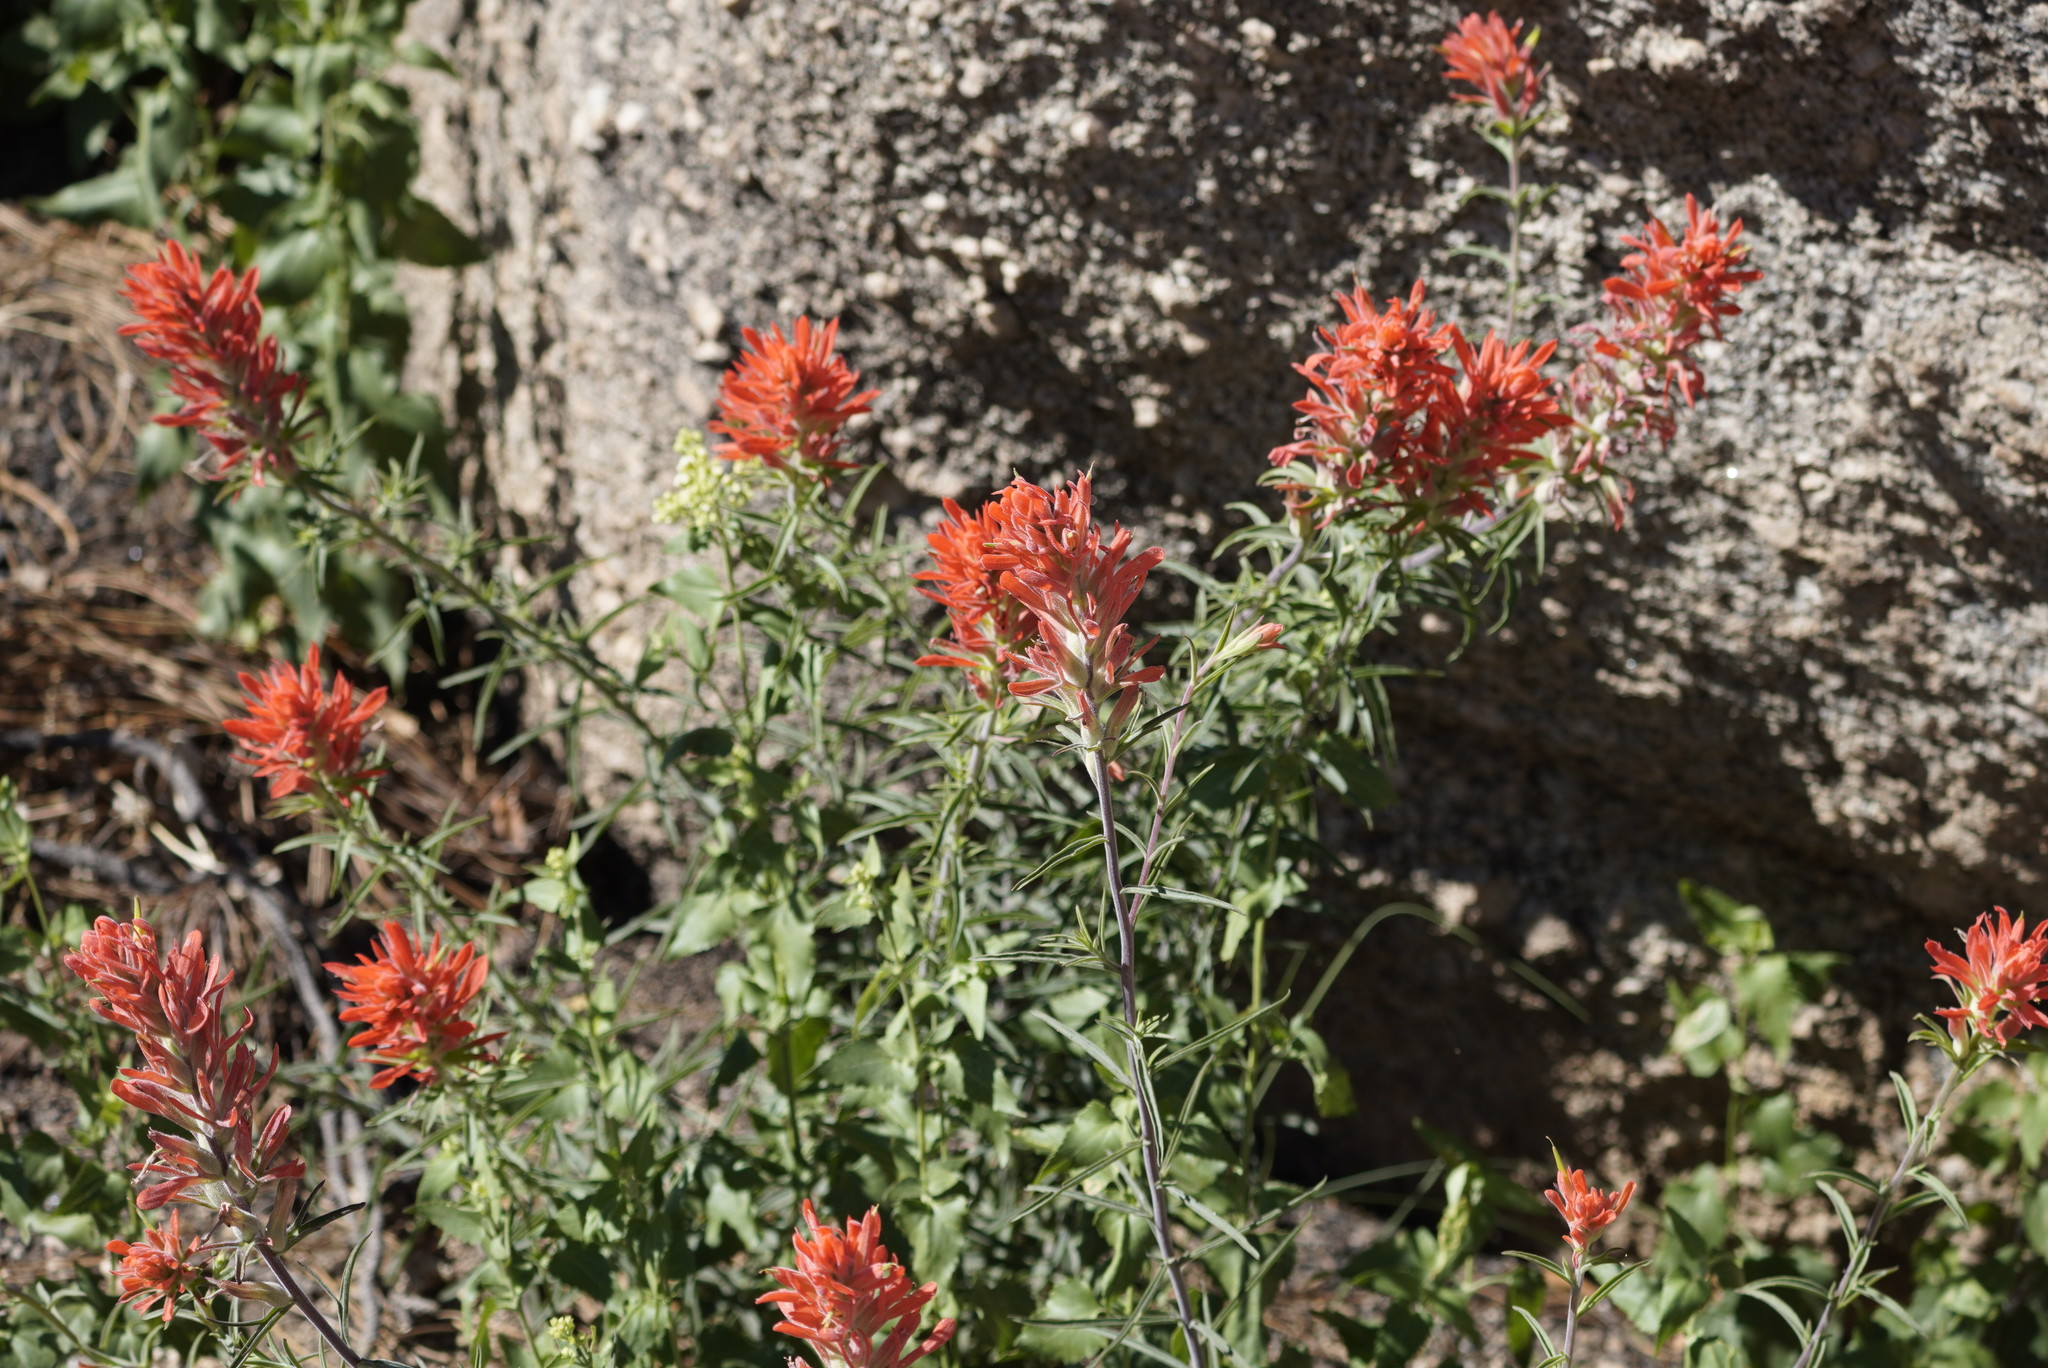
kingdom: Plantae
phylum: Tracheophyta
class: Magnoliopsida
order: Lamiales
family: Orobanchaceae
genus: Castilleja
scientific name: Castilleja linariifolia
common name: Wyoming paintbrush
